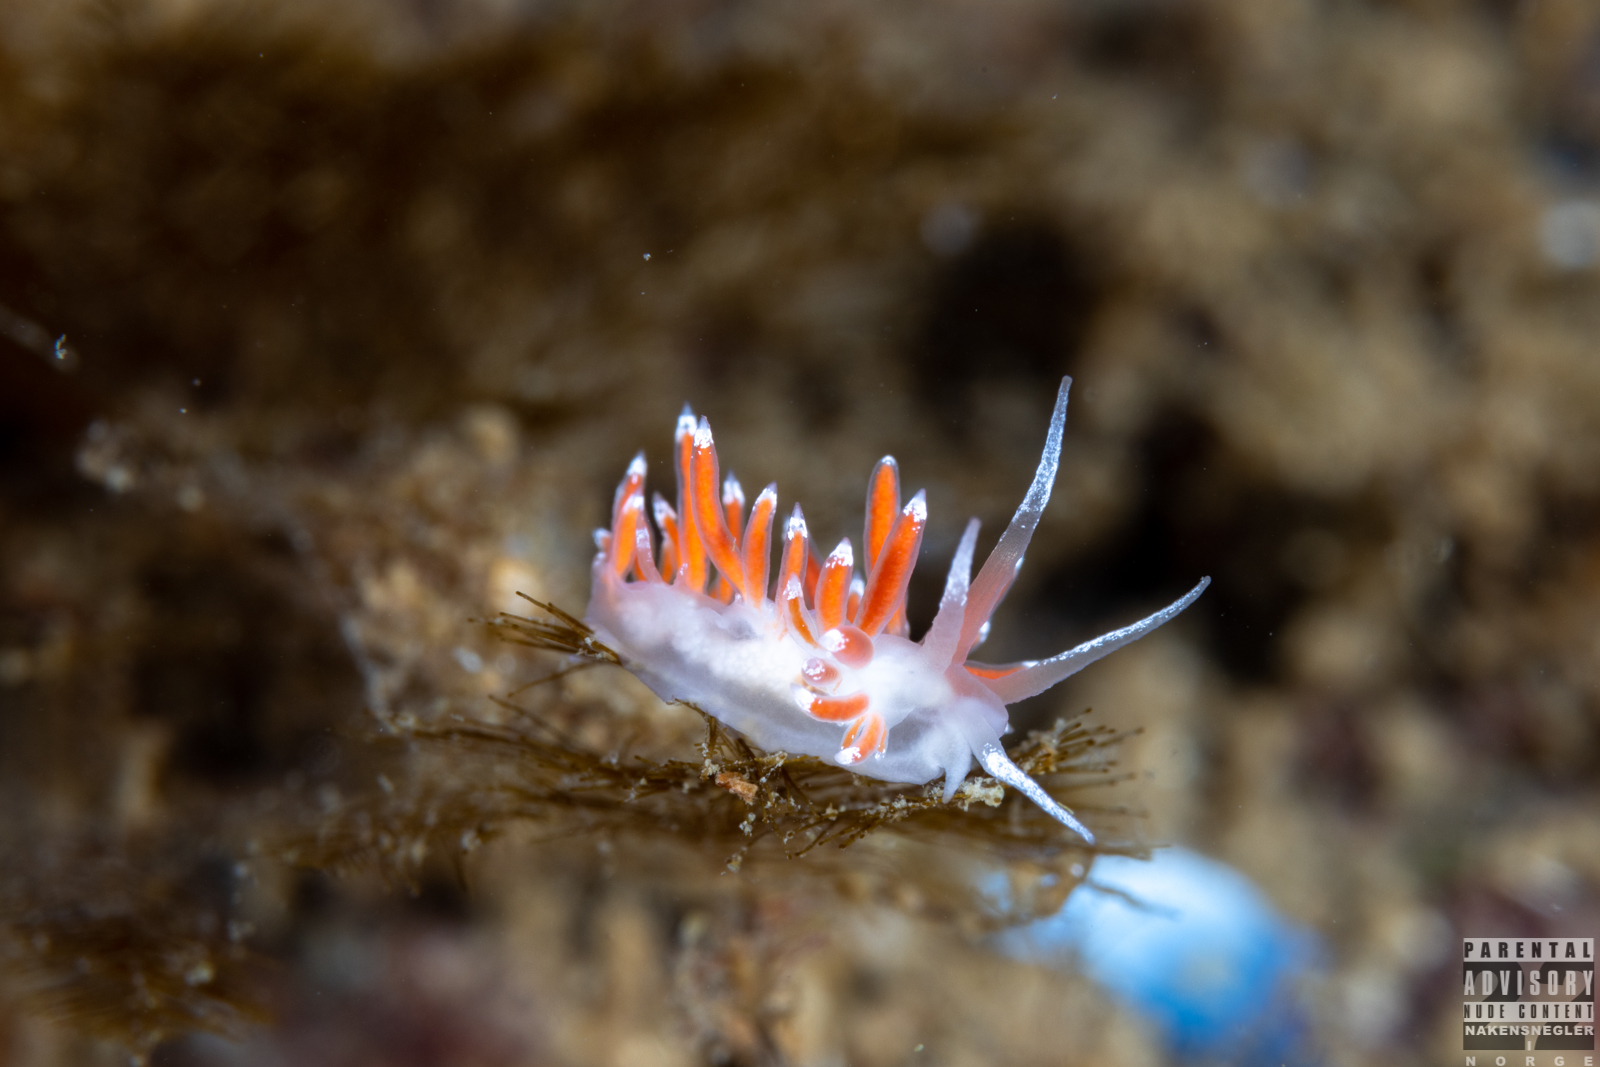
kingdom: Animalia
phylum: Mollusca
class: Gastropoda
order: Nudibranchia
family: Coryphellidae
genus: Coryphella
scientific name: Coryphella gracilis
